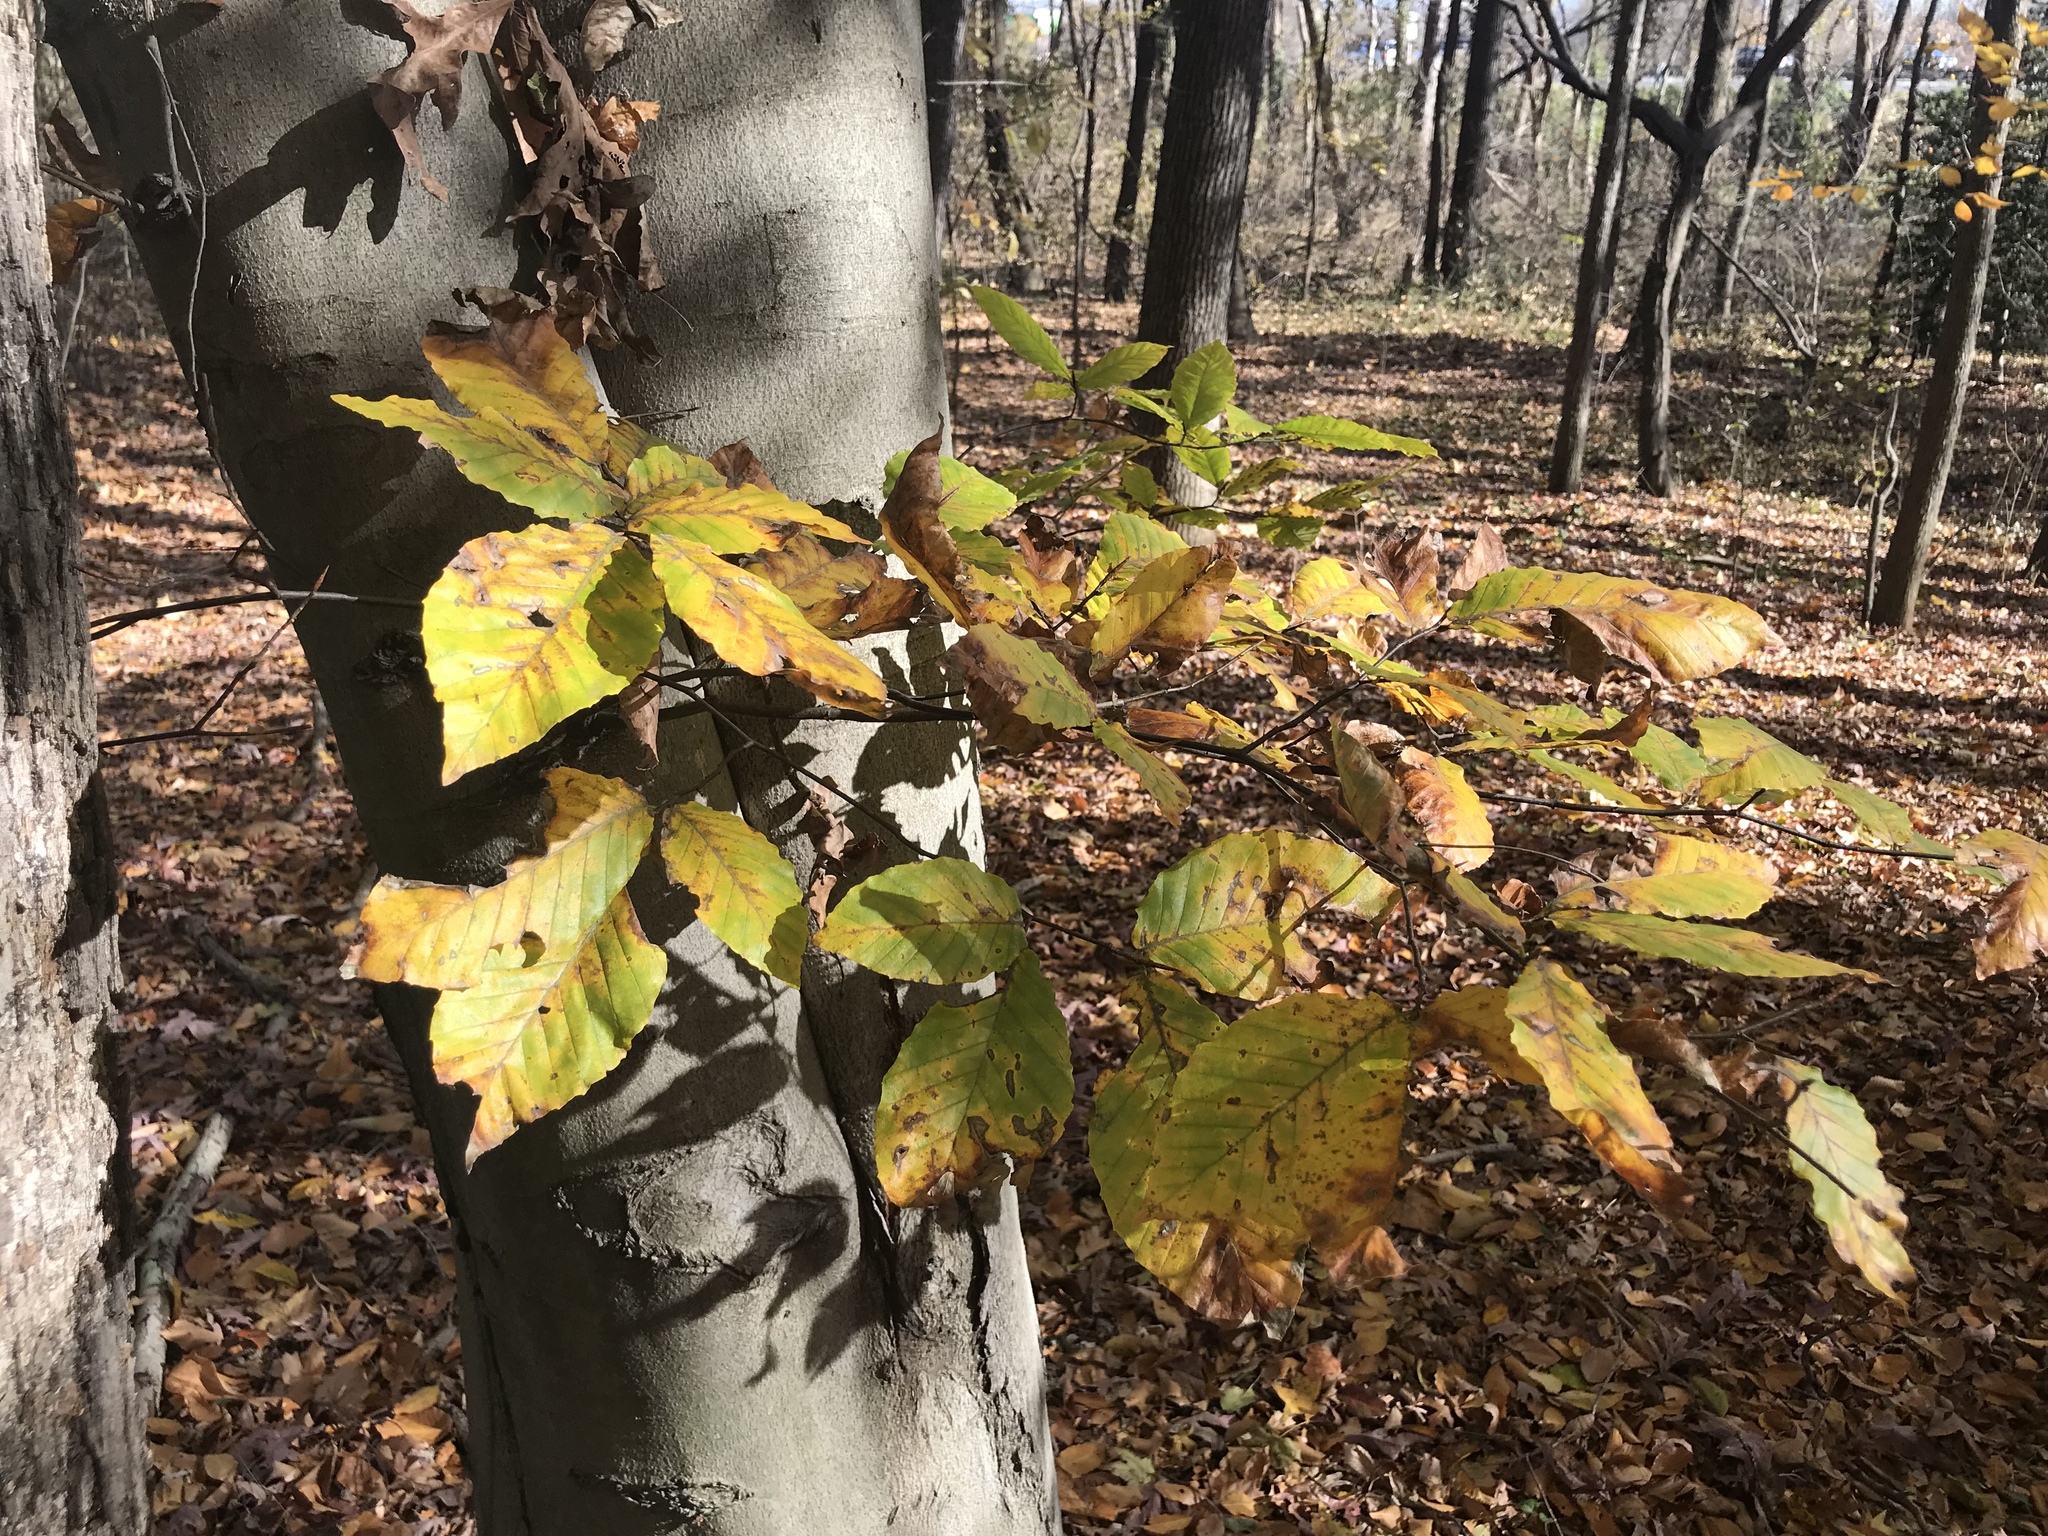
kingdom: Plantae
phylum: Tracheophyta
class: Magnoliopsida
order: Fagales
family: Fagaceae
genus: Fagus
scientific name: Fagus grandifolia
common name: American beech
